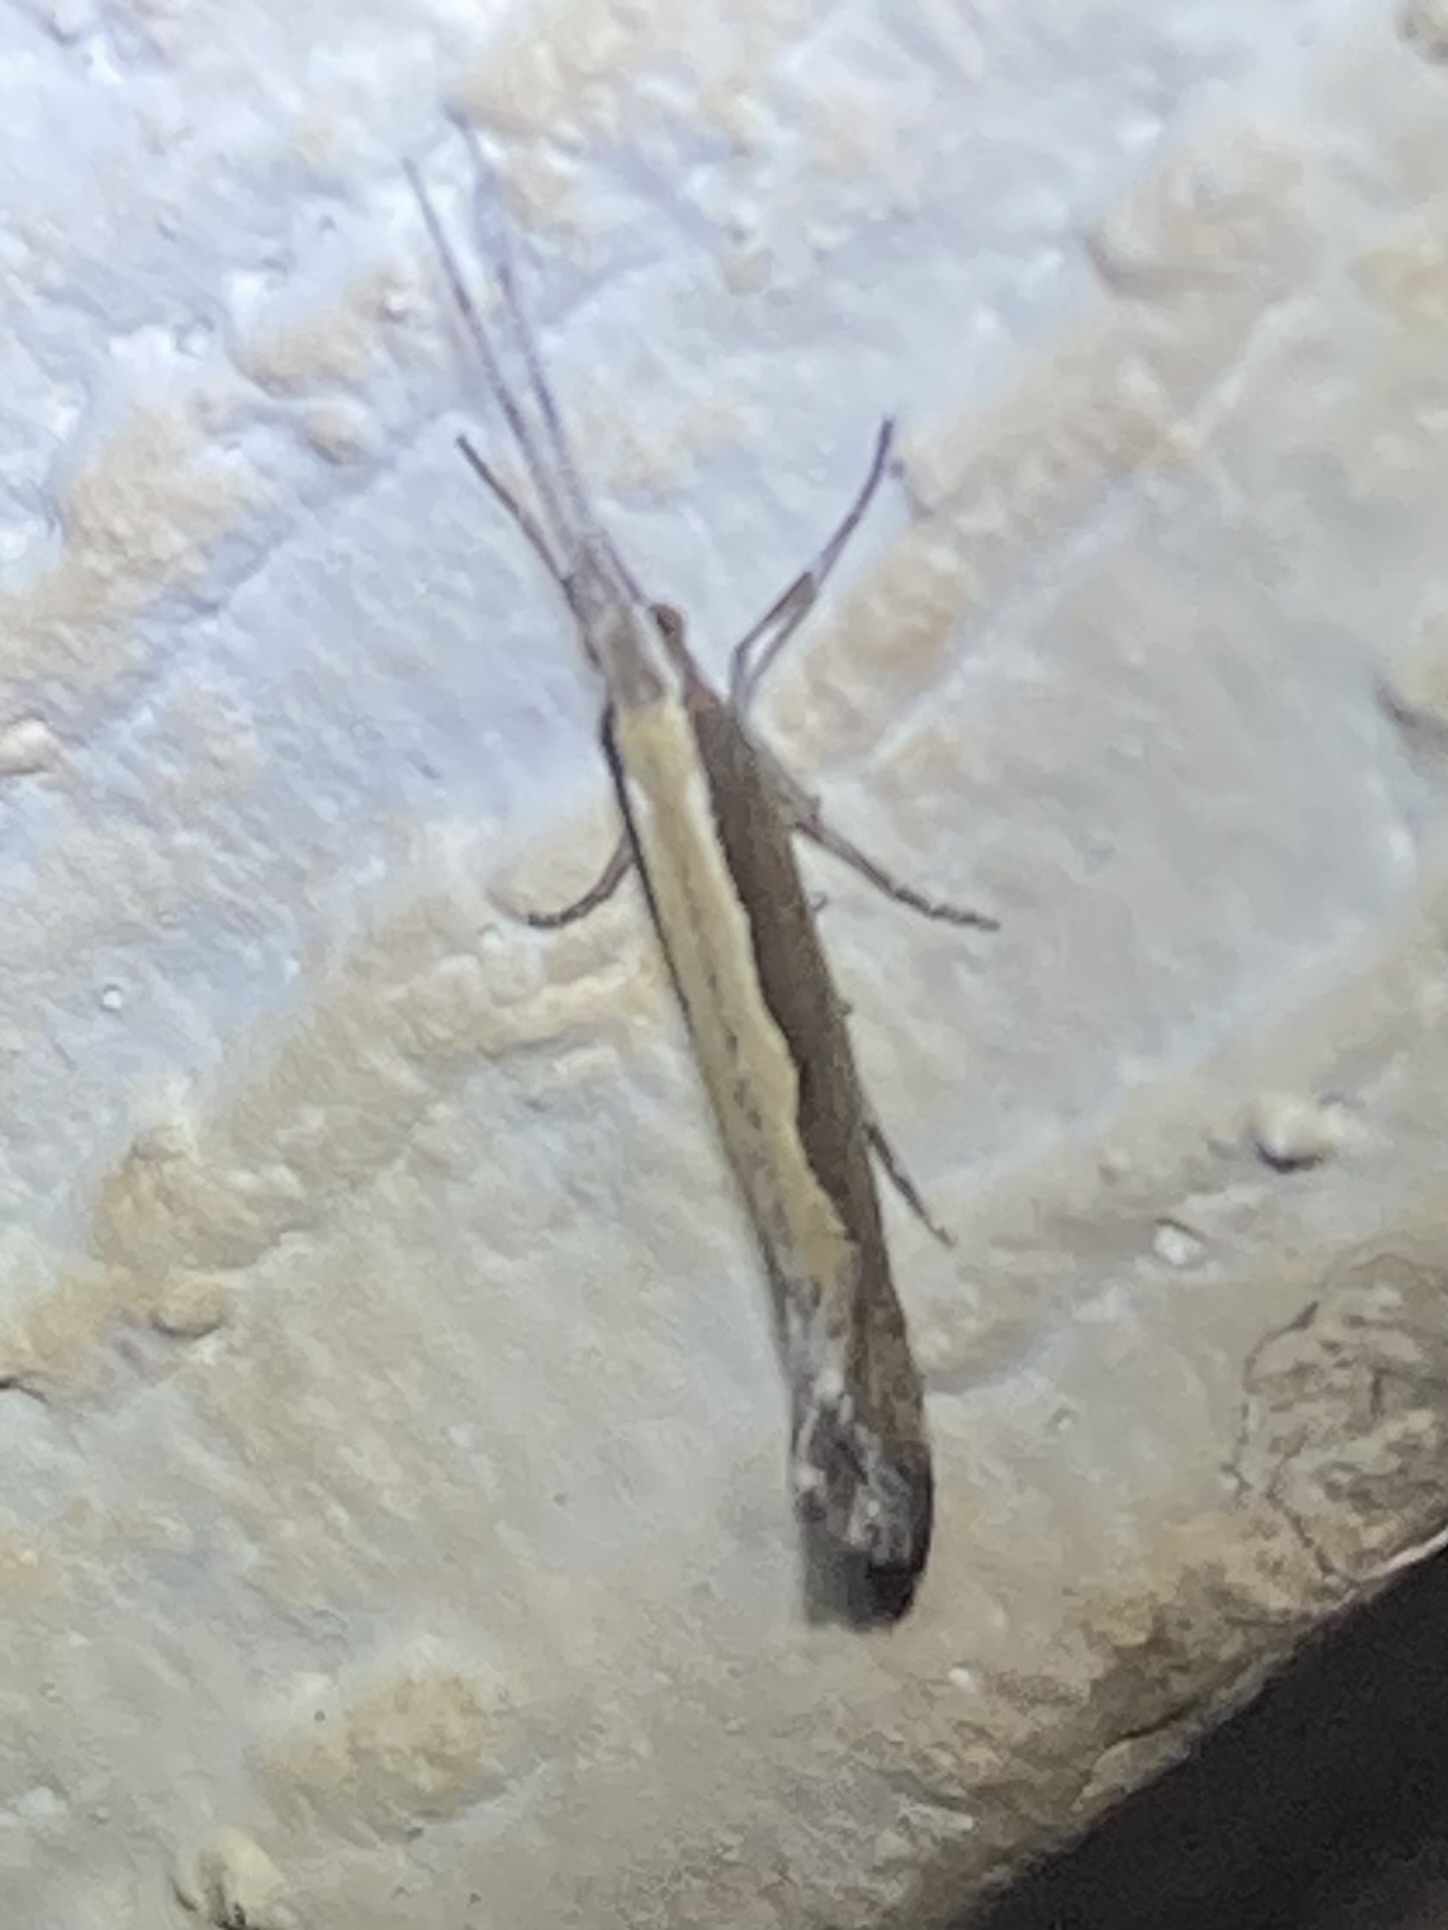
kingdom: Animalia
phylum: Arthropoda
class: Insecta
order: Lepidoptera
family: Plutellidae
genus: Plutella
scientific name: Plutella xylostella
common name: Diamond-back moth
